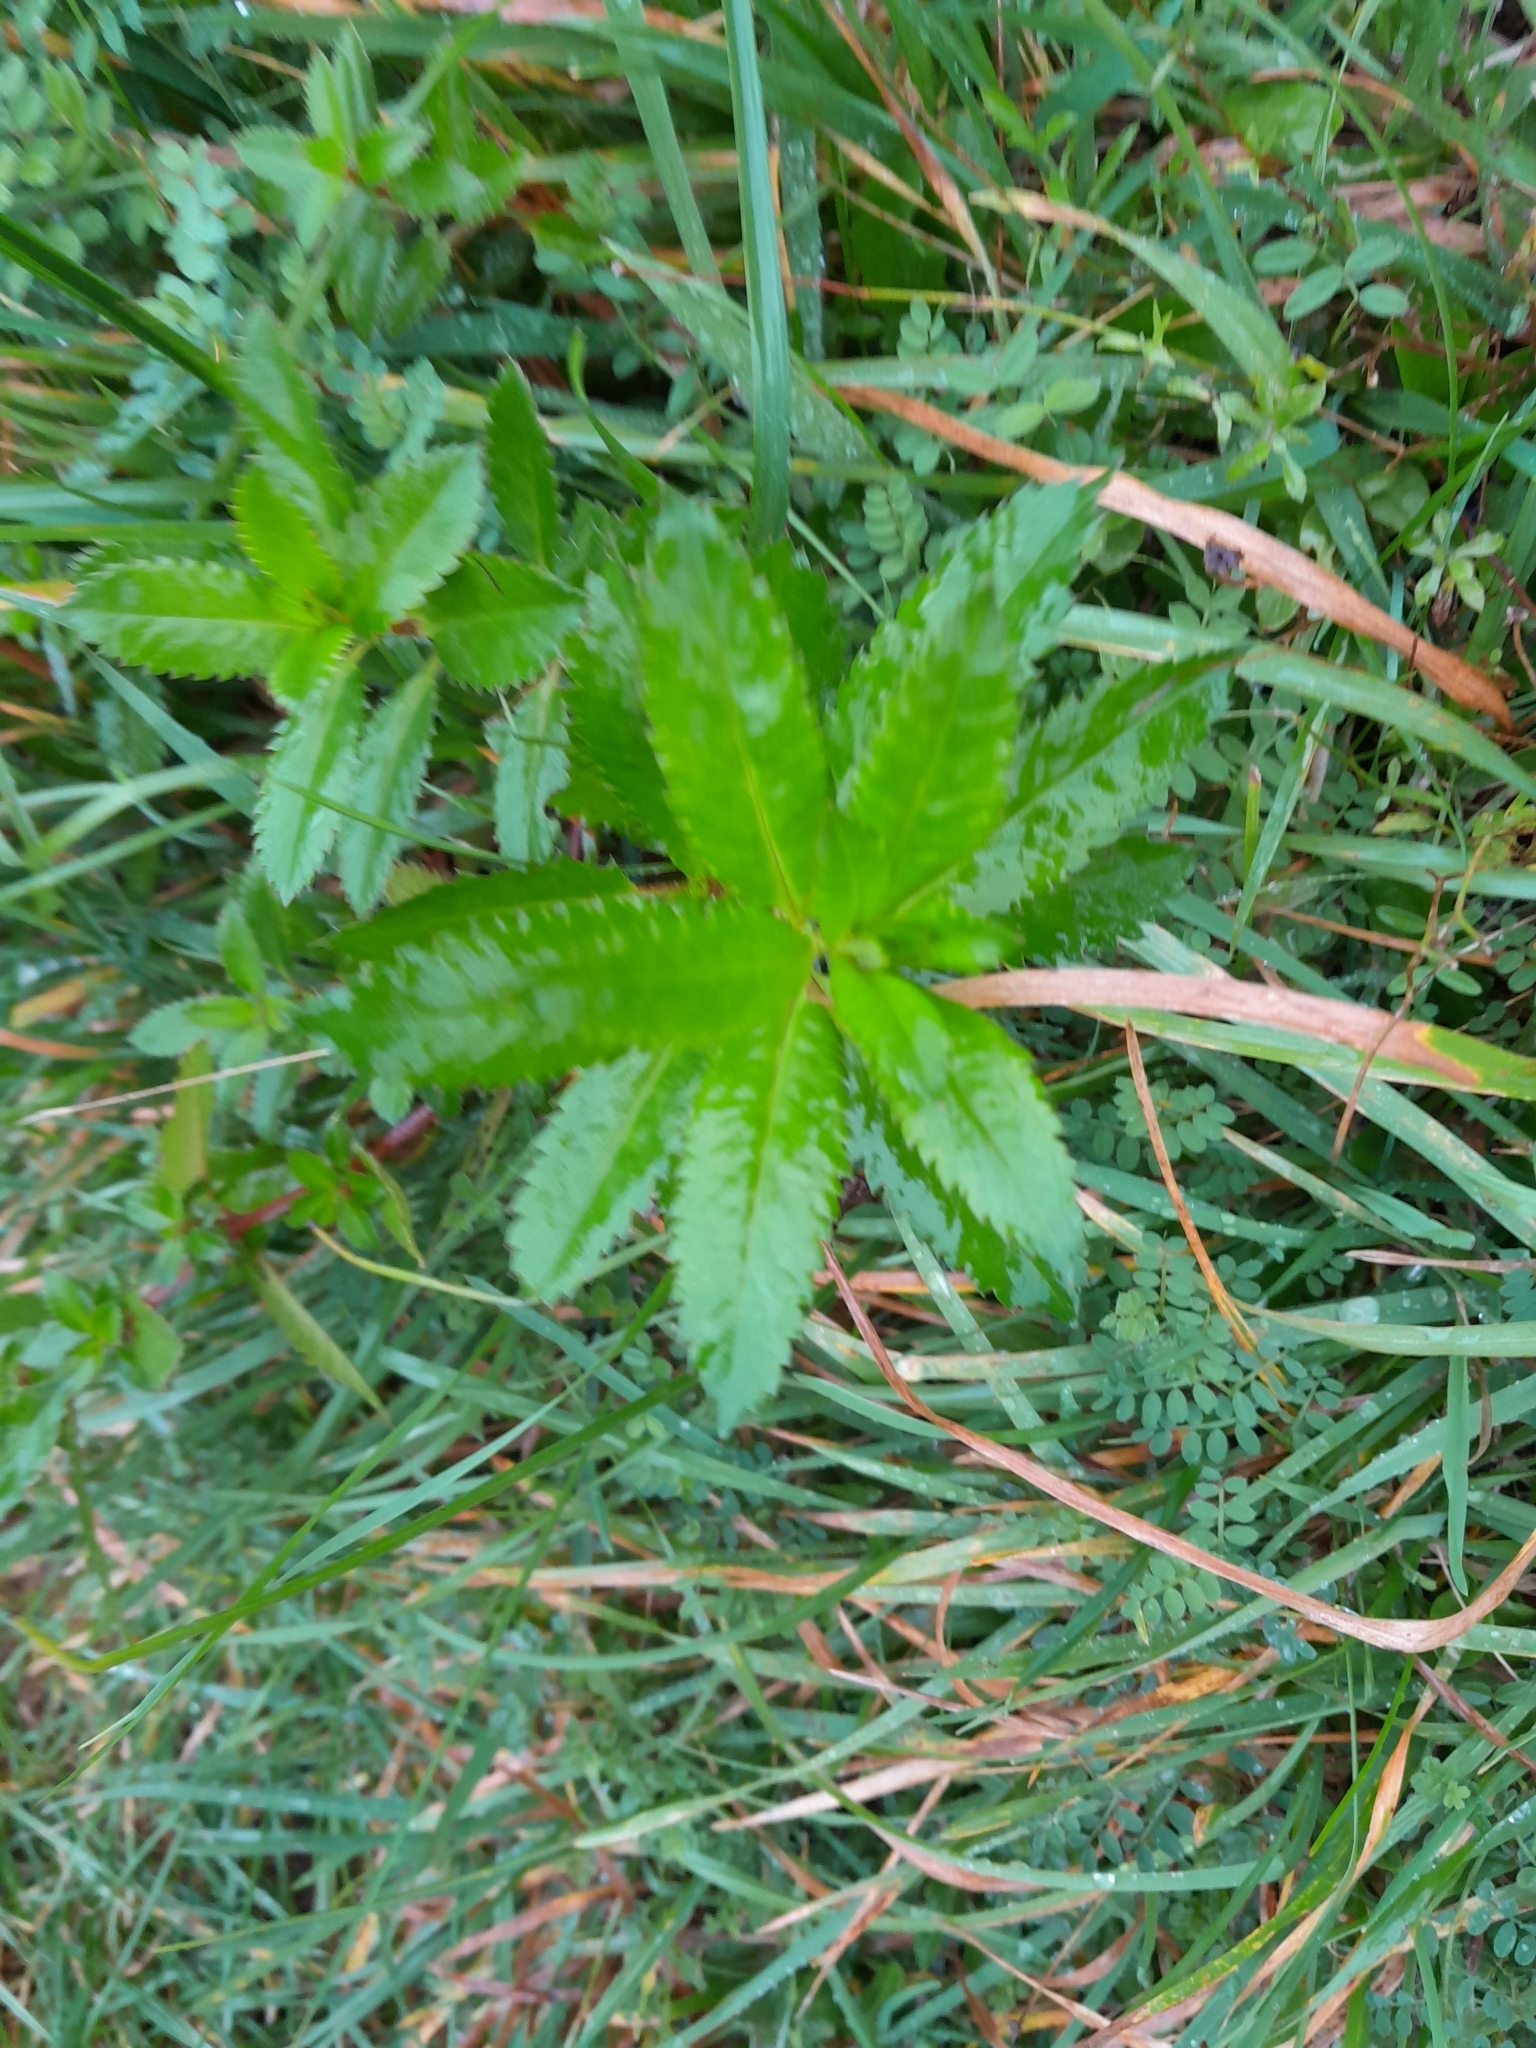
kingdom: Plantae
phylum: Tracheophyta
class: Magnoliopsida
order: Saxifragales
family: Haloragaceae
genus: Haloragis
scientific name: Haloragis erecta
